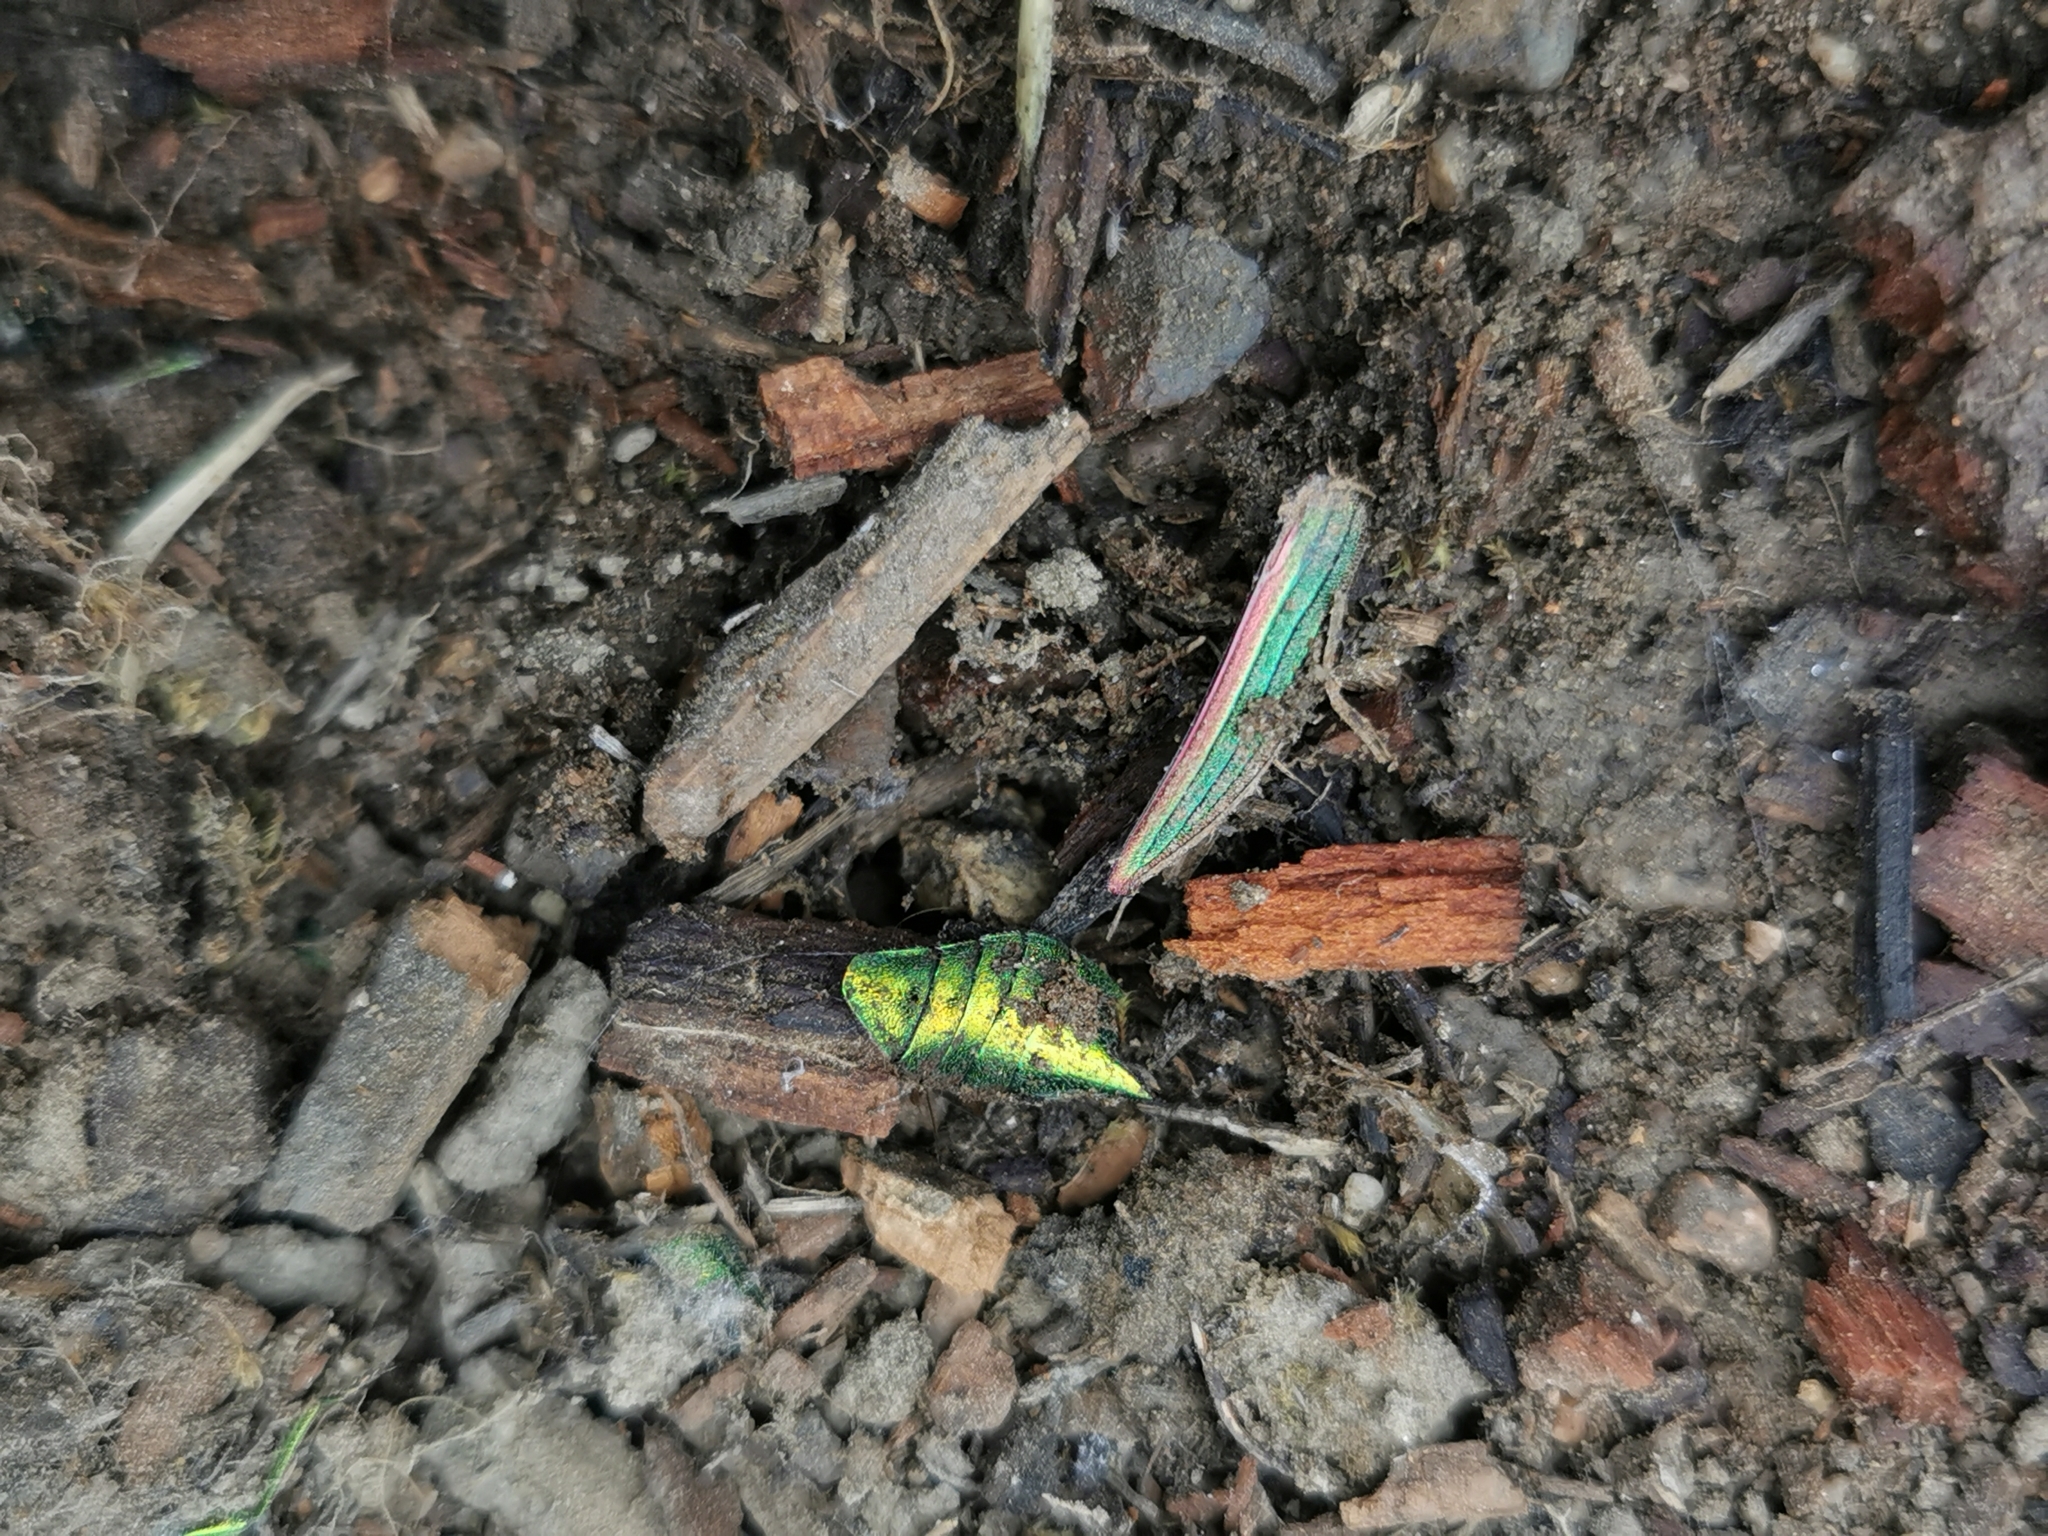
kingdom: Animalia
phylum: Arthropoda
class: Insecta
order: Coleoptera
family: Buprestidae
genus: Buprestis
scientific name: Buprestis aurulenta
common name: Golden buprestid
